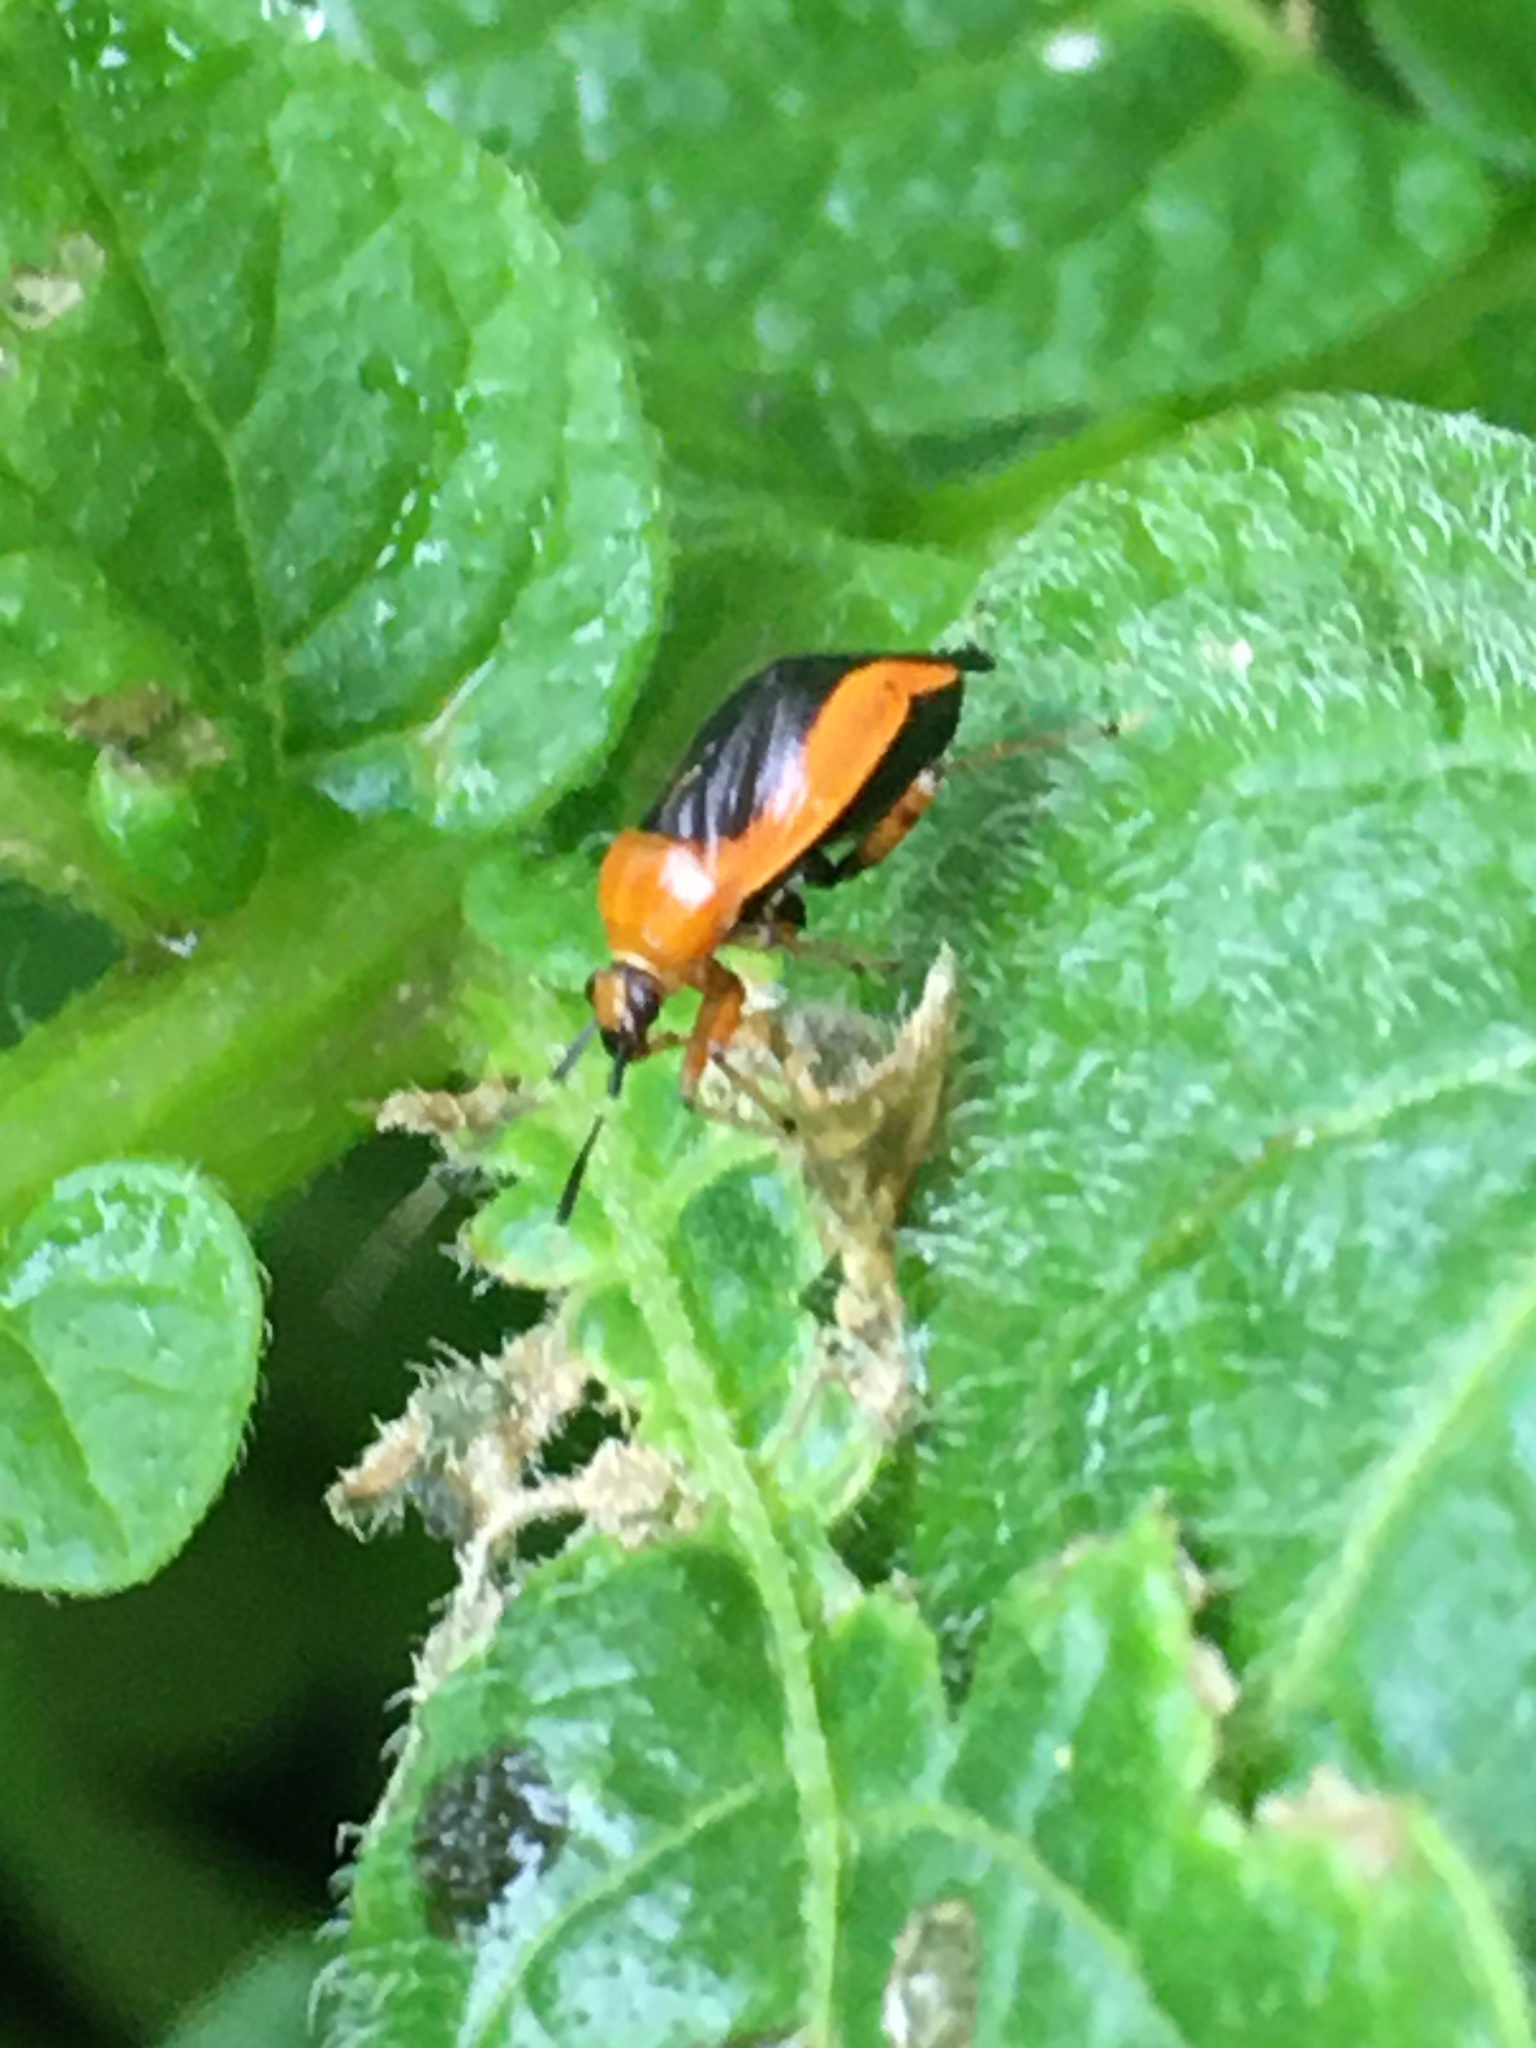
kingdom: Animalia
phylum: Arthropoda
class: Insecta
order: Hemiptera
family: Miridae
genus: Metriorrhynchomiris
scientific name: Metriorrhynchomiris dislocatus
